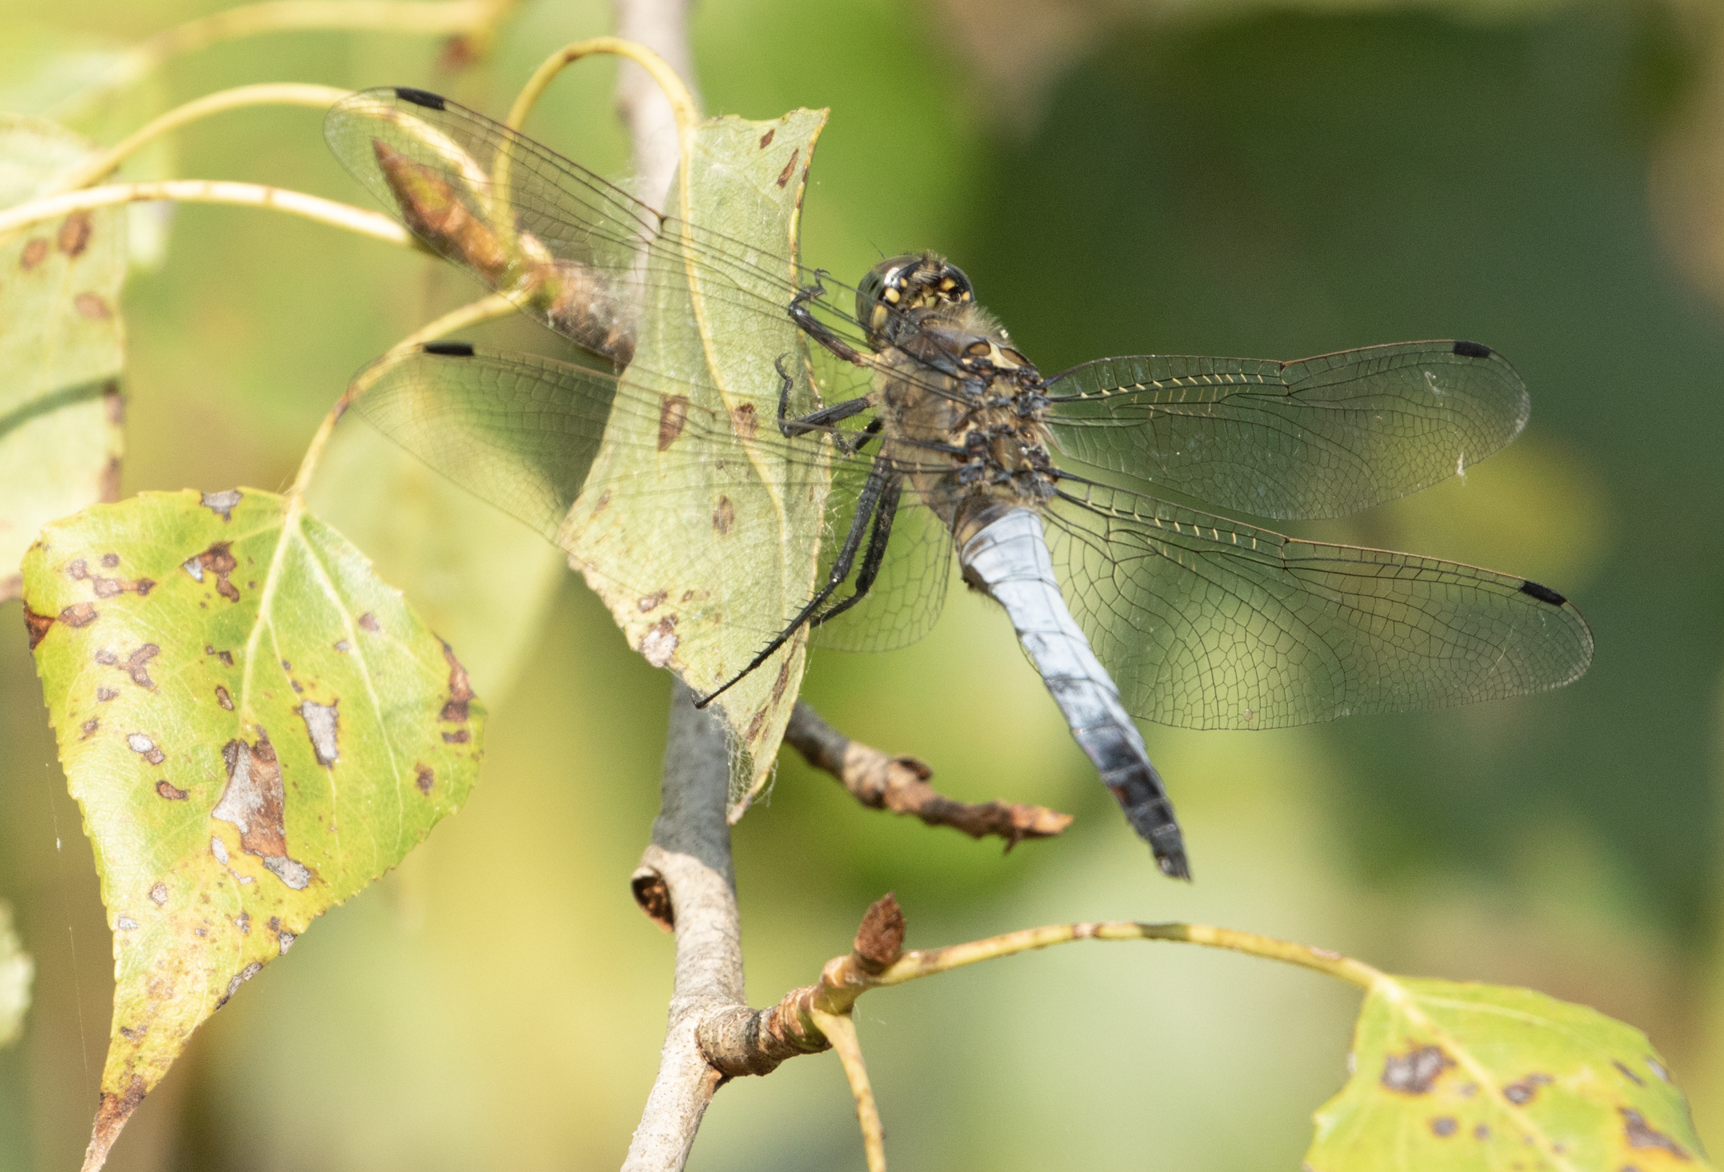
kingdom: Animalia
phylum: Arthropoda
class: Insecta
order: Odonata
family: Libellulidae
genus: Orthetrum
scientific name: Orthetrum cancellatum
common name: Black-tailed skimmer
